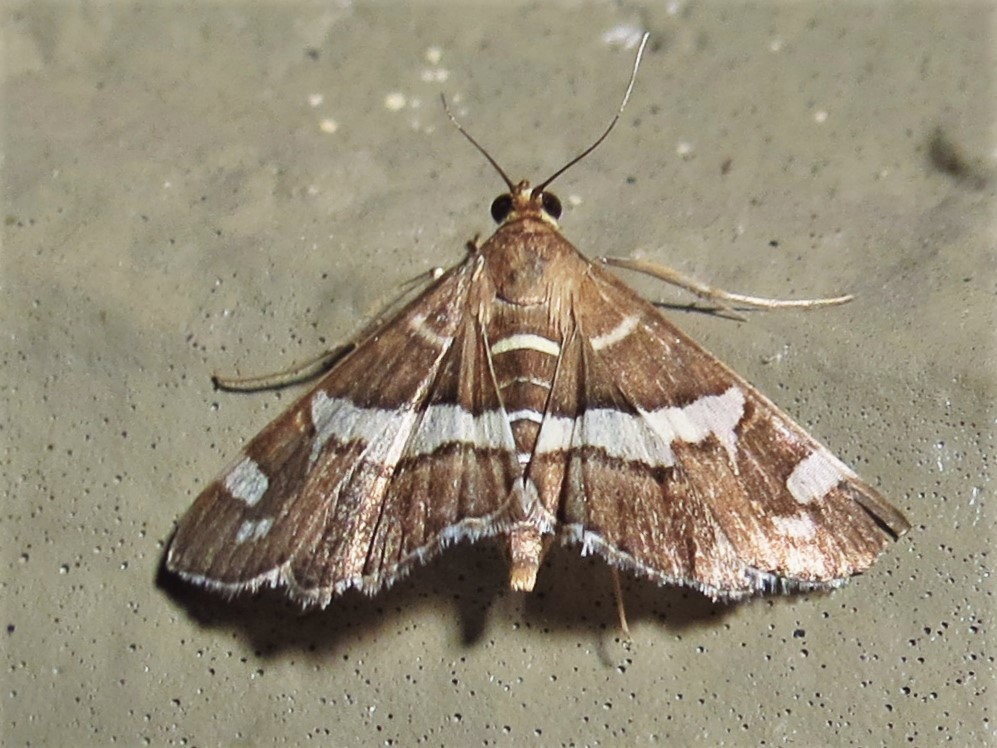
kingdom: Animalia
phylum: Arthropoda
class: Insecta
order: Lepidoptera
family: Crambidae
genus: Spoladea
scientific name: Spoladea recurvalis
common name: Beet webworm moth
